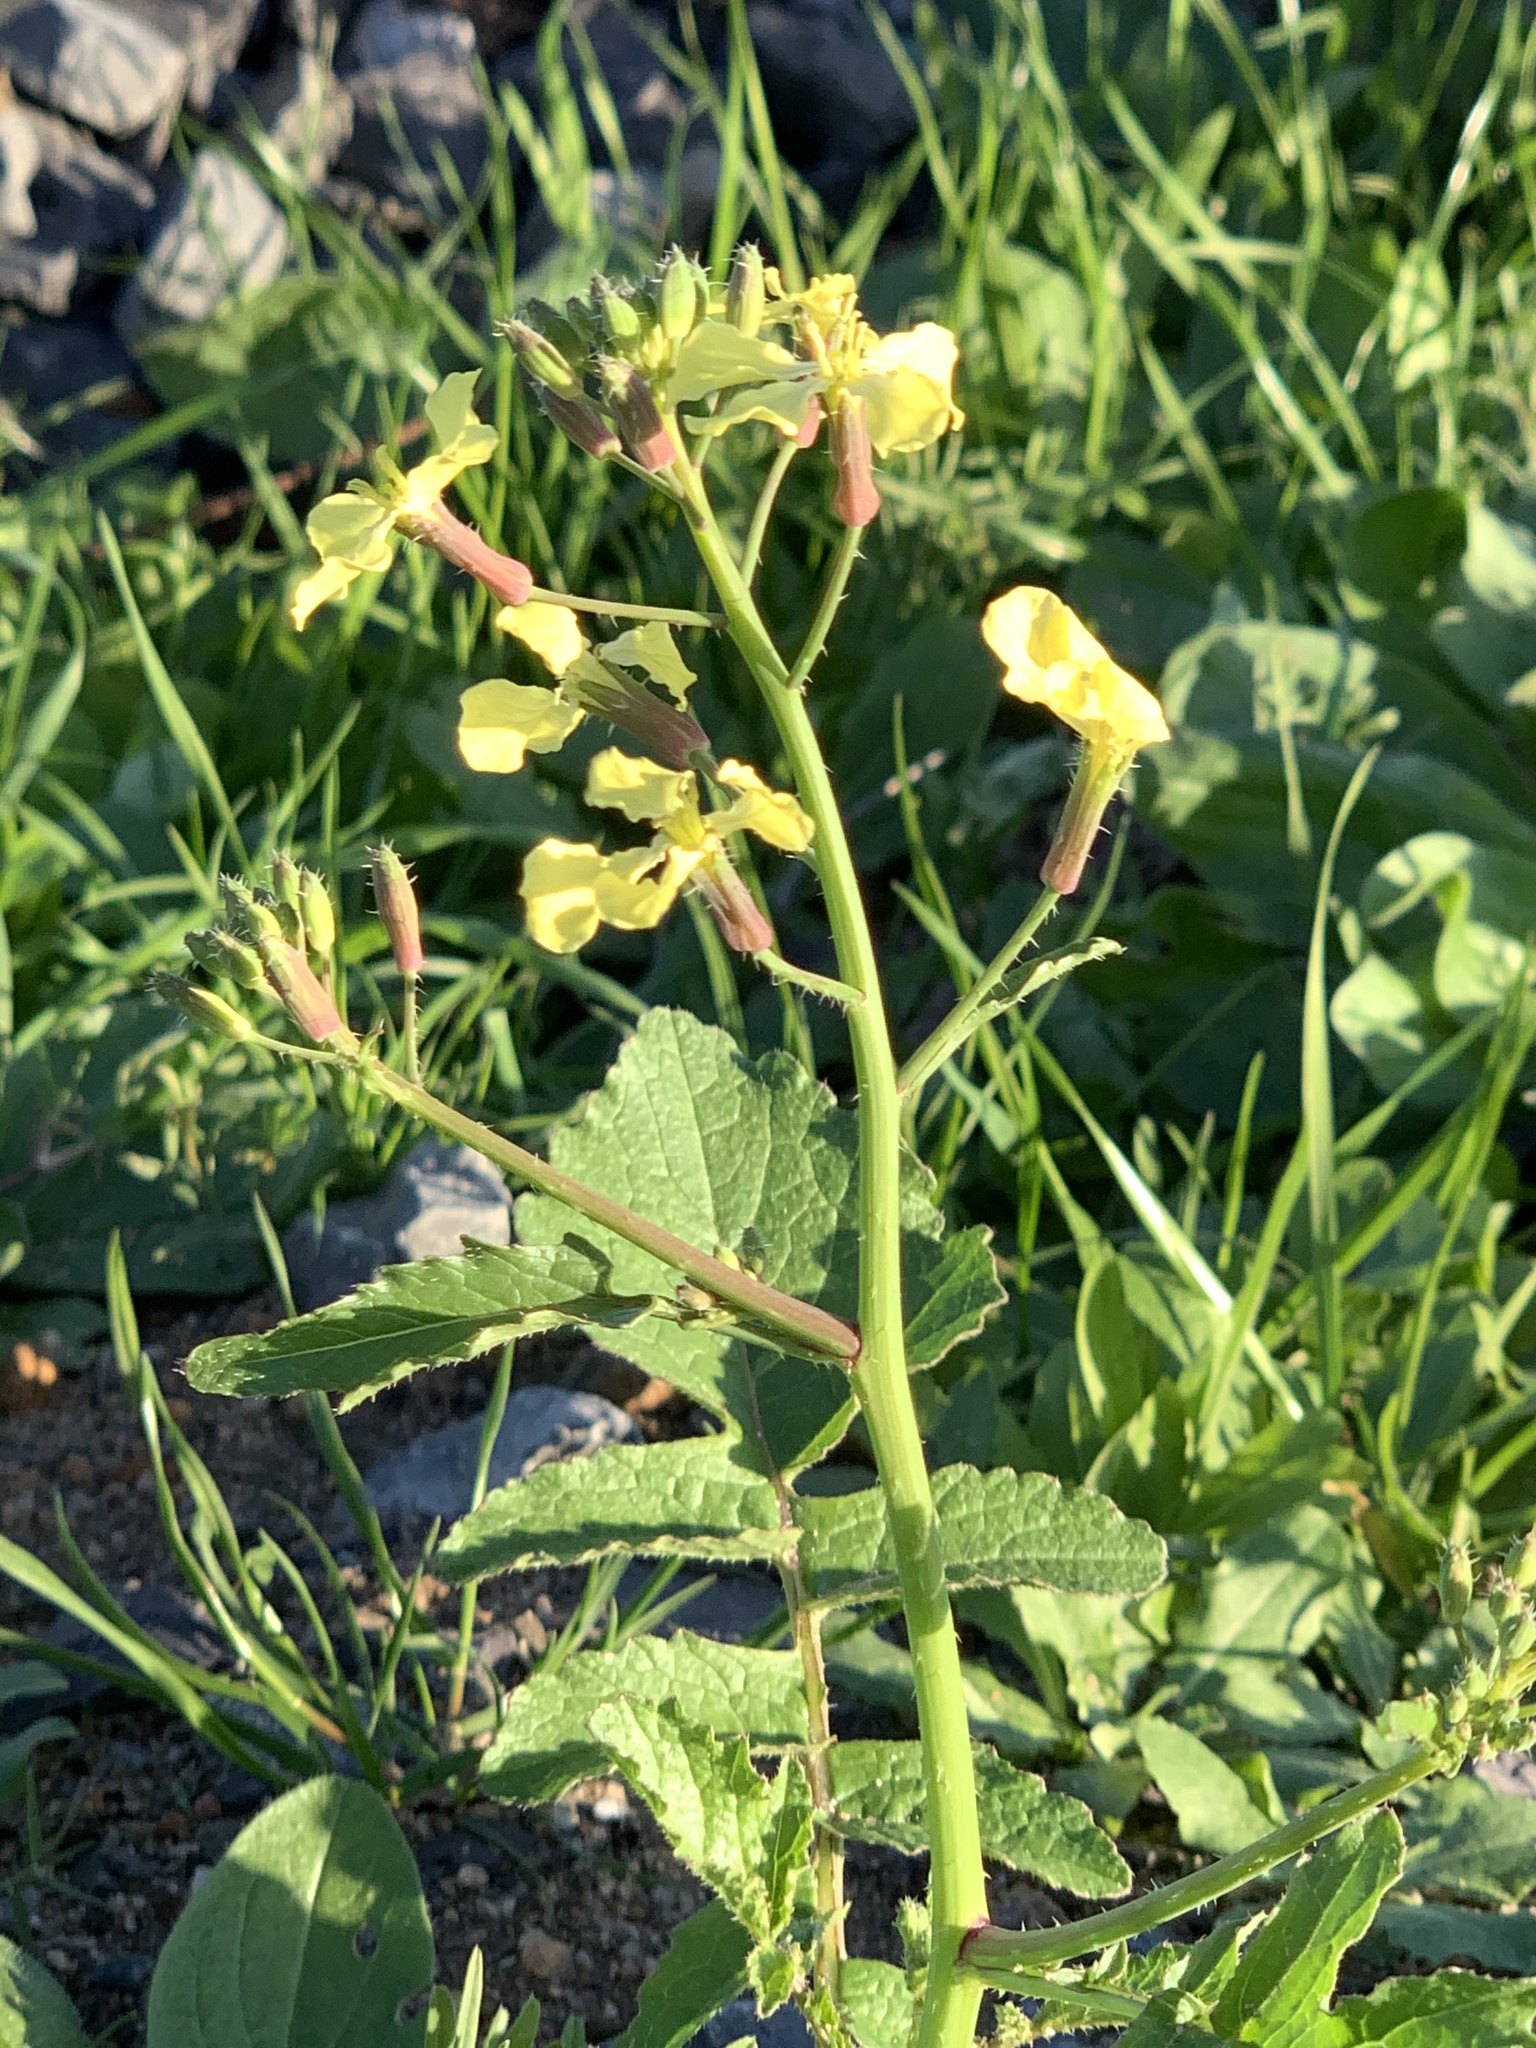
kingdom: Plantae
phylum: Tracheophyta
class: Magnoliopsida
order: Brassicales
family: Brassicaceae
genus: Raphanus
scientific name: Raphanus raphanistrum
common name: Wild radish
